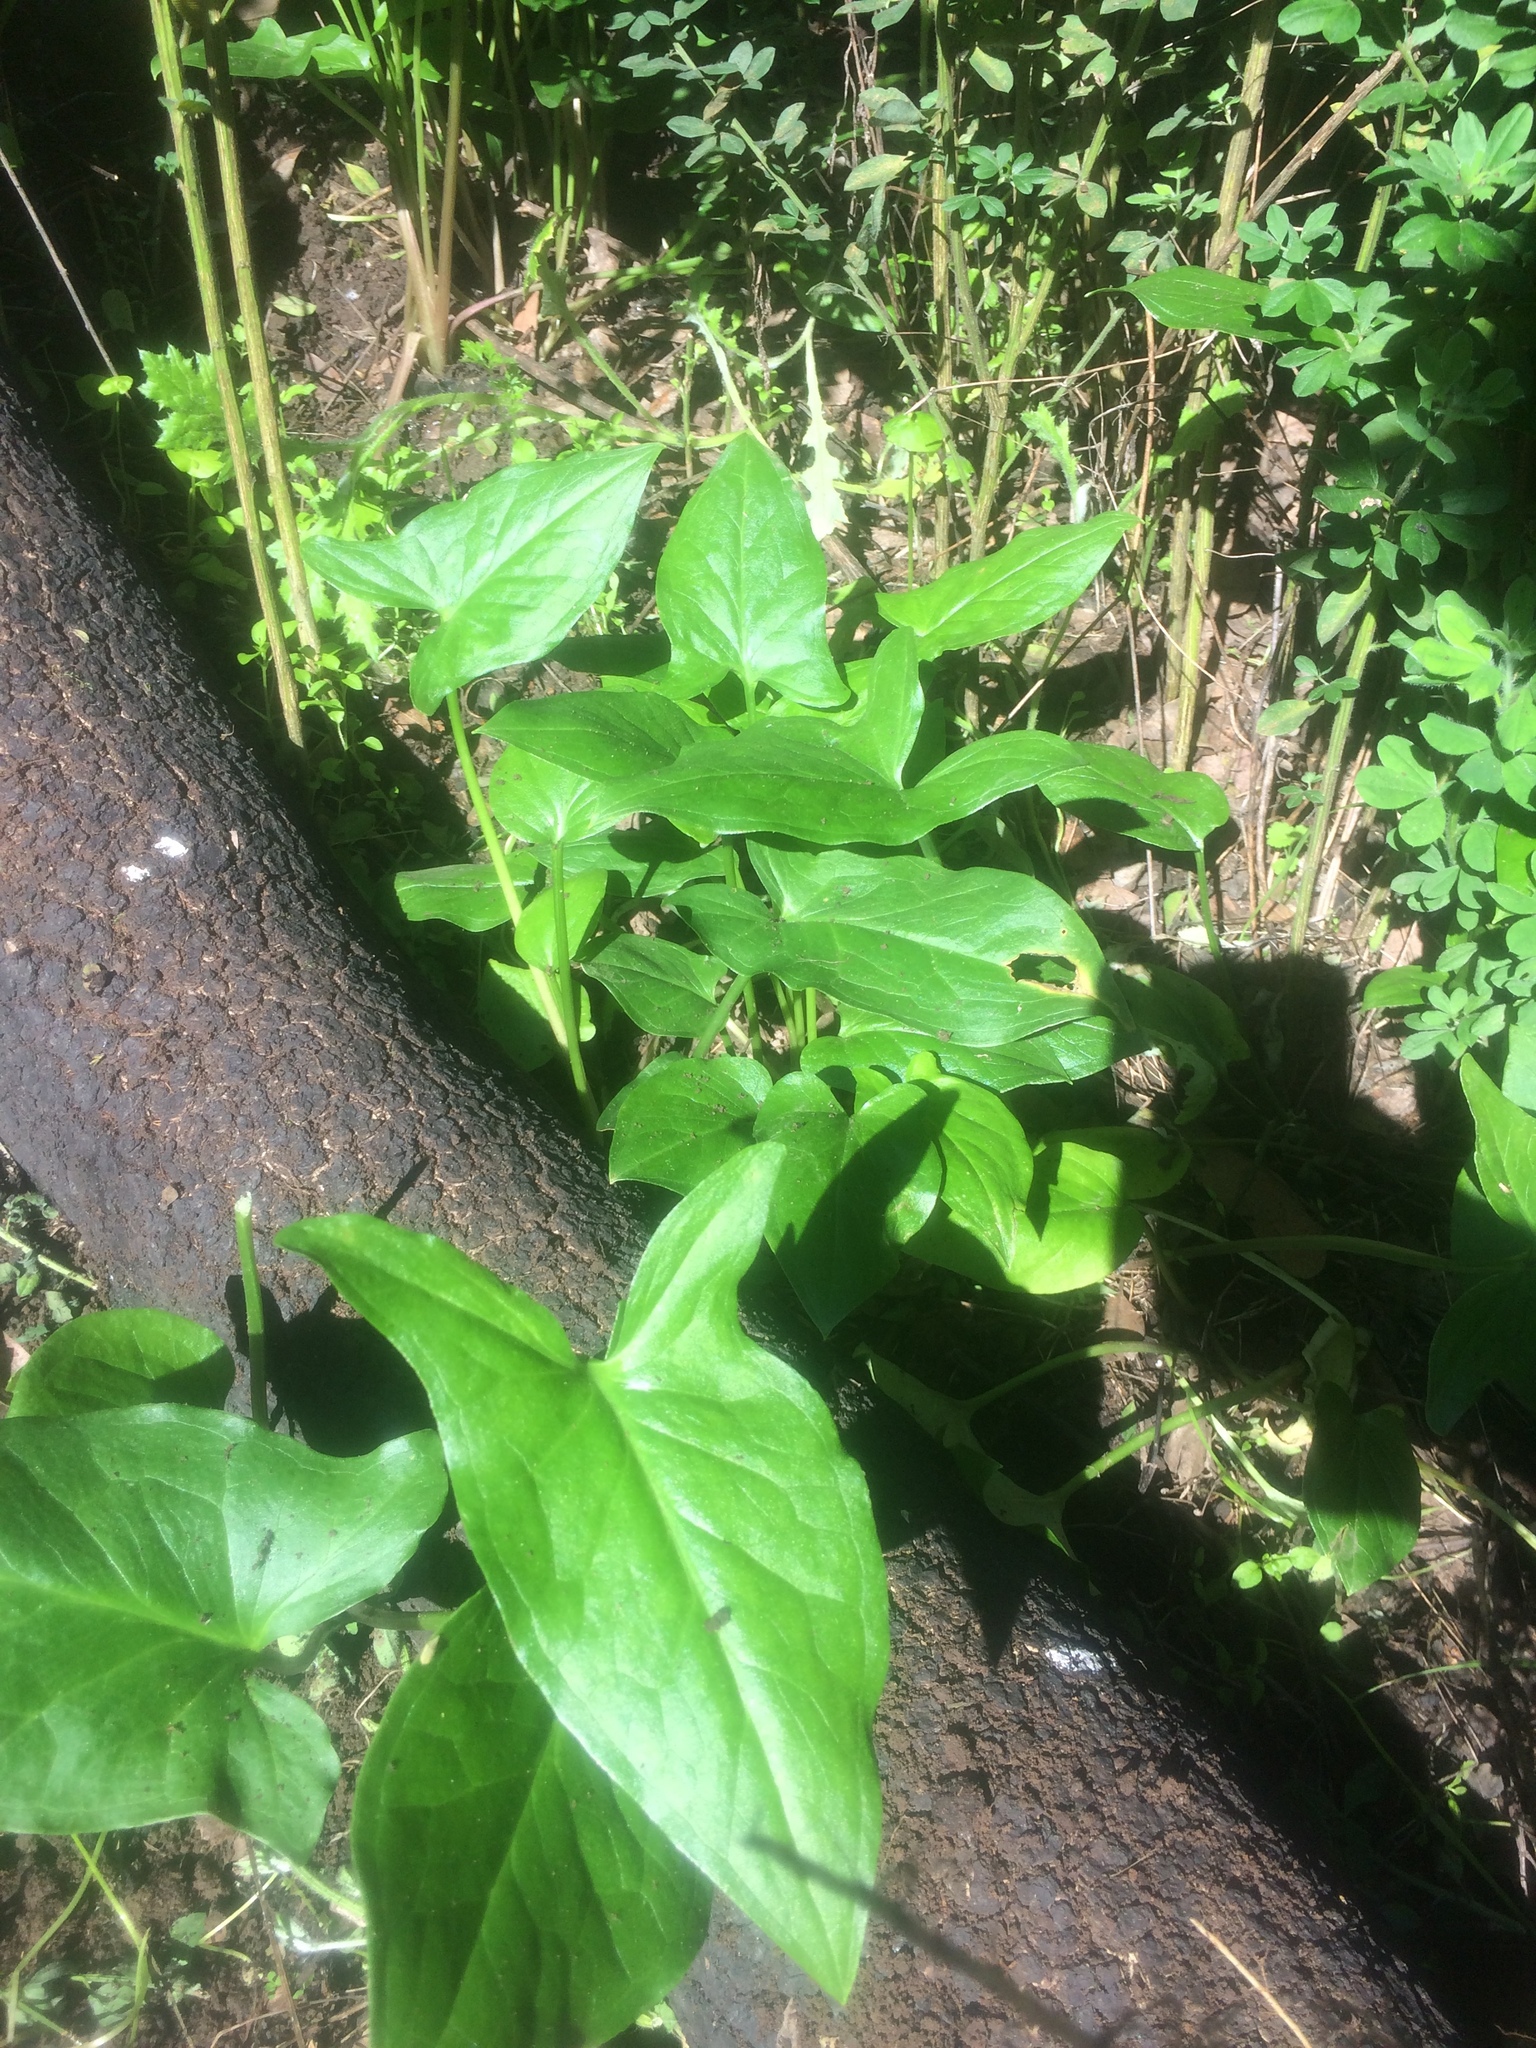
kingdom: Plantae
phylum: Tracheophyta
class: Liliopsida
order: Alismatales
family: Araceae
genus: Arum
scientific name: Arum italicum
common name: Italian lords-and-ladies
